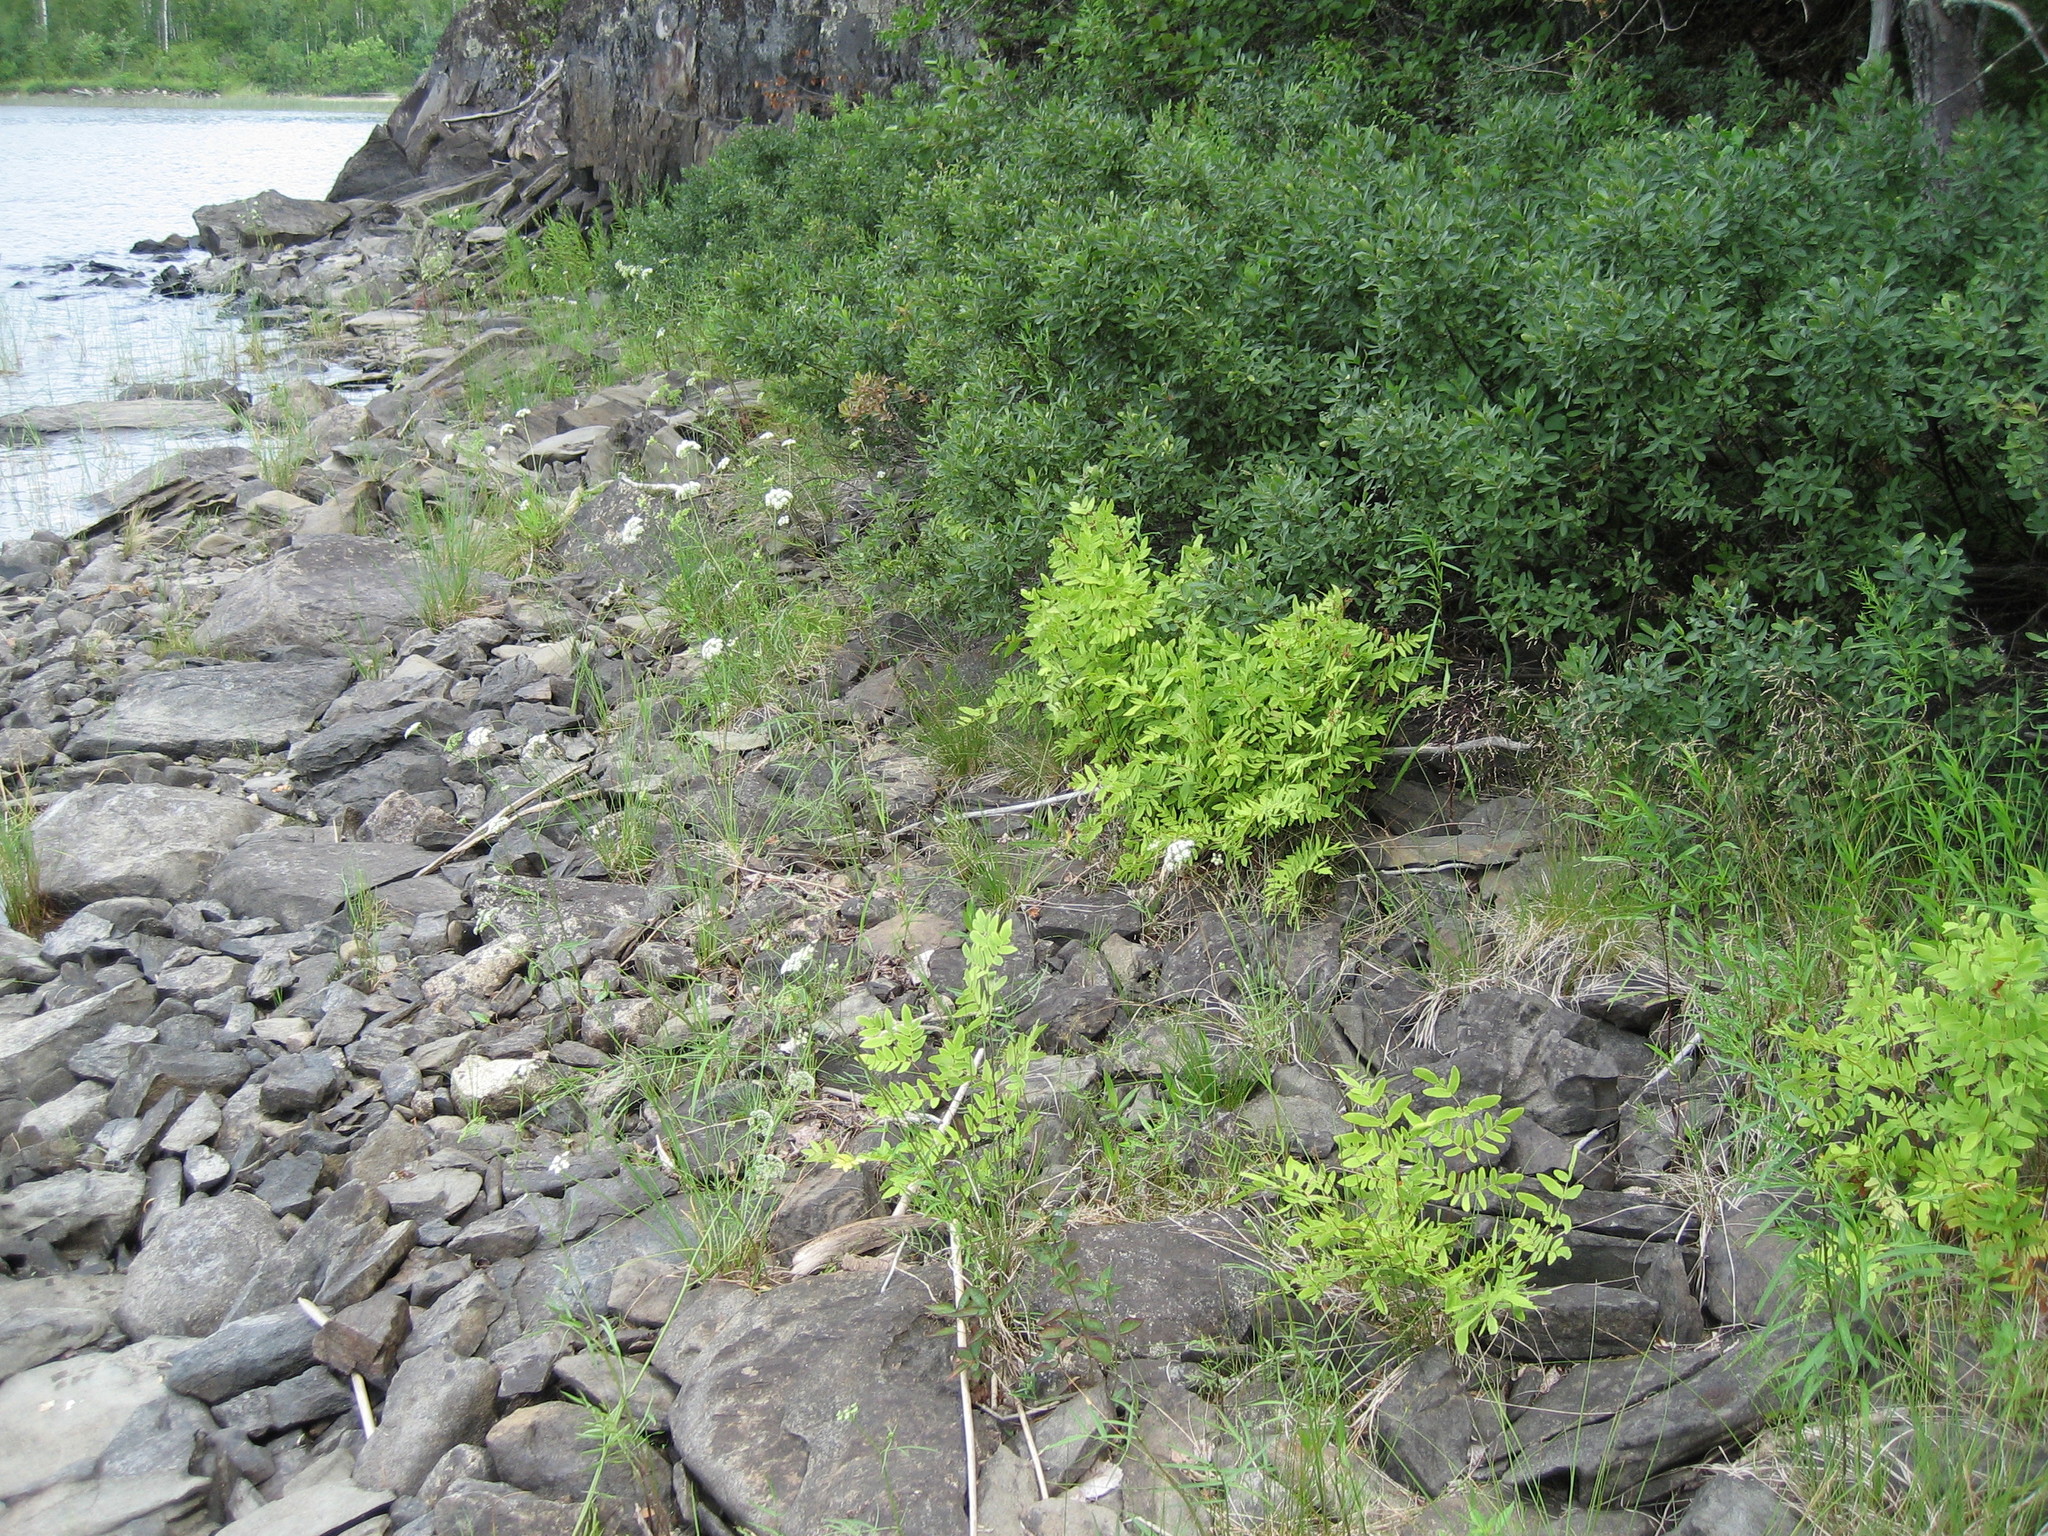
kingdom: Plantae
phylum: Tracheophyta
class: Polypodiopsida
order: Osmundales
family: Osmundaceae
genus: Osmunda
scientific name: Osmunda spectabilis
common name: American royal fern
